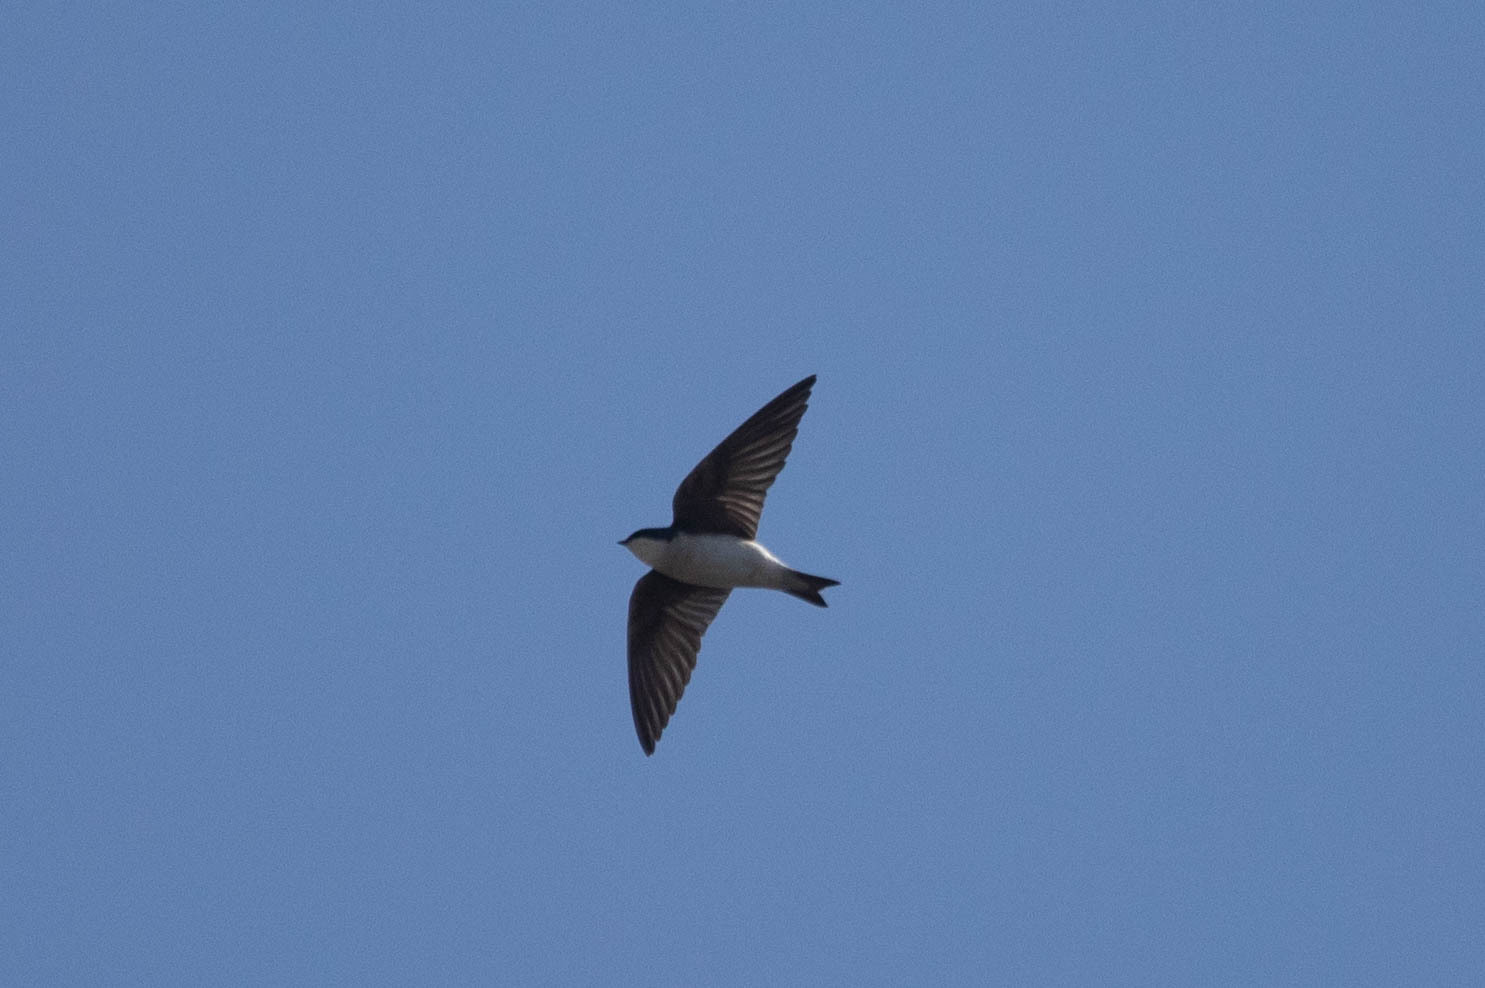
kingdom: Animalia
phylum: Chordata
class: Aves
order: Passeriformes
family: Hirundinidae
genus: Tachycineta
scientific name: Tachycineta bicolor
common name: Tree swallow
